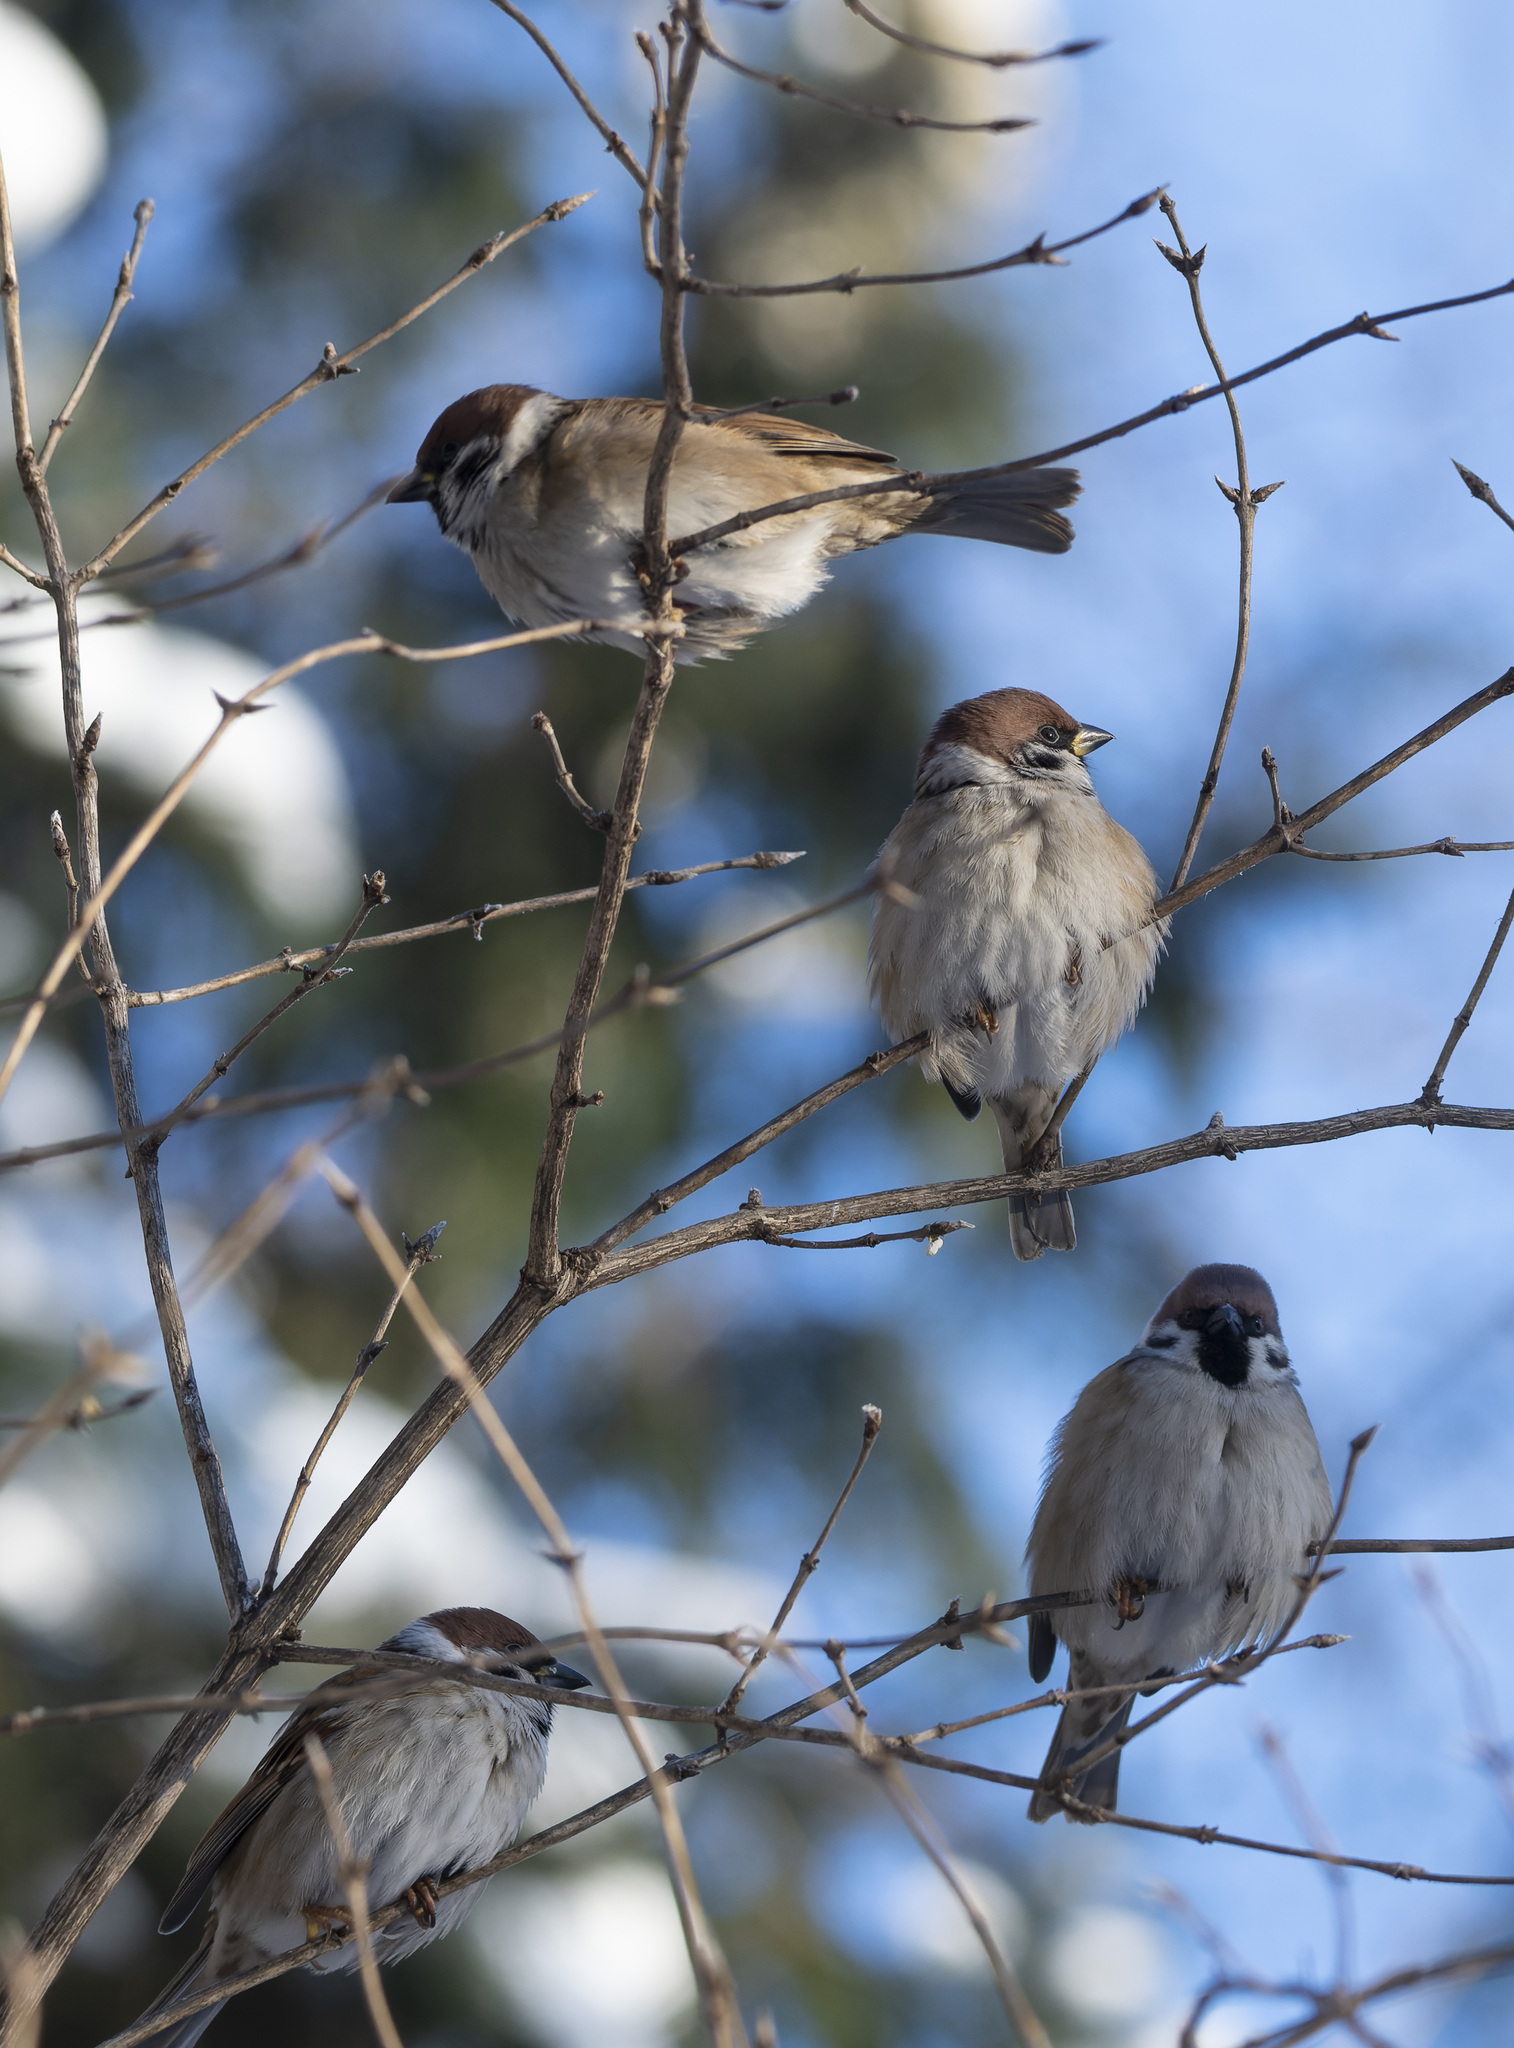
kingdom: Animalia
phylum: Chordata
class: Aves
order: Passeriformes
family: Passeridae
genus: Passer
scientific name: Passer montanus
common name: Eurasian tree sparrow
